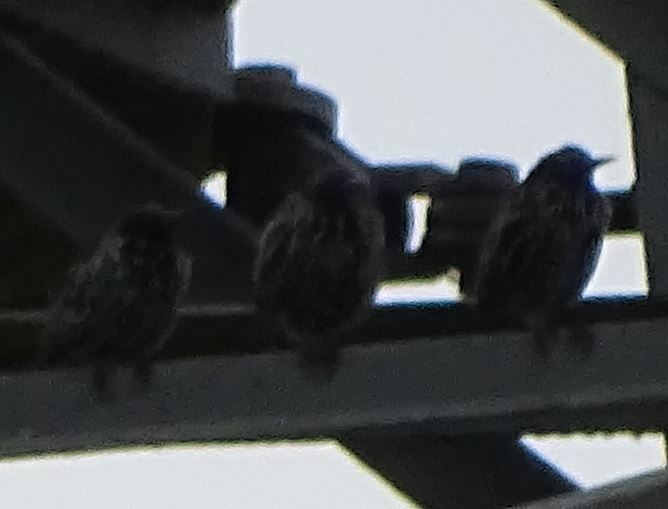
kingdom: Animalia
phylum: Chordata
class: Aves
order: Passeriformes
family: Sturnidae
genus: Sturnus
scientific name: Sturnus vulgaris
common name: Common starling
